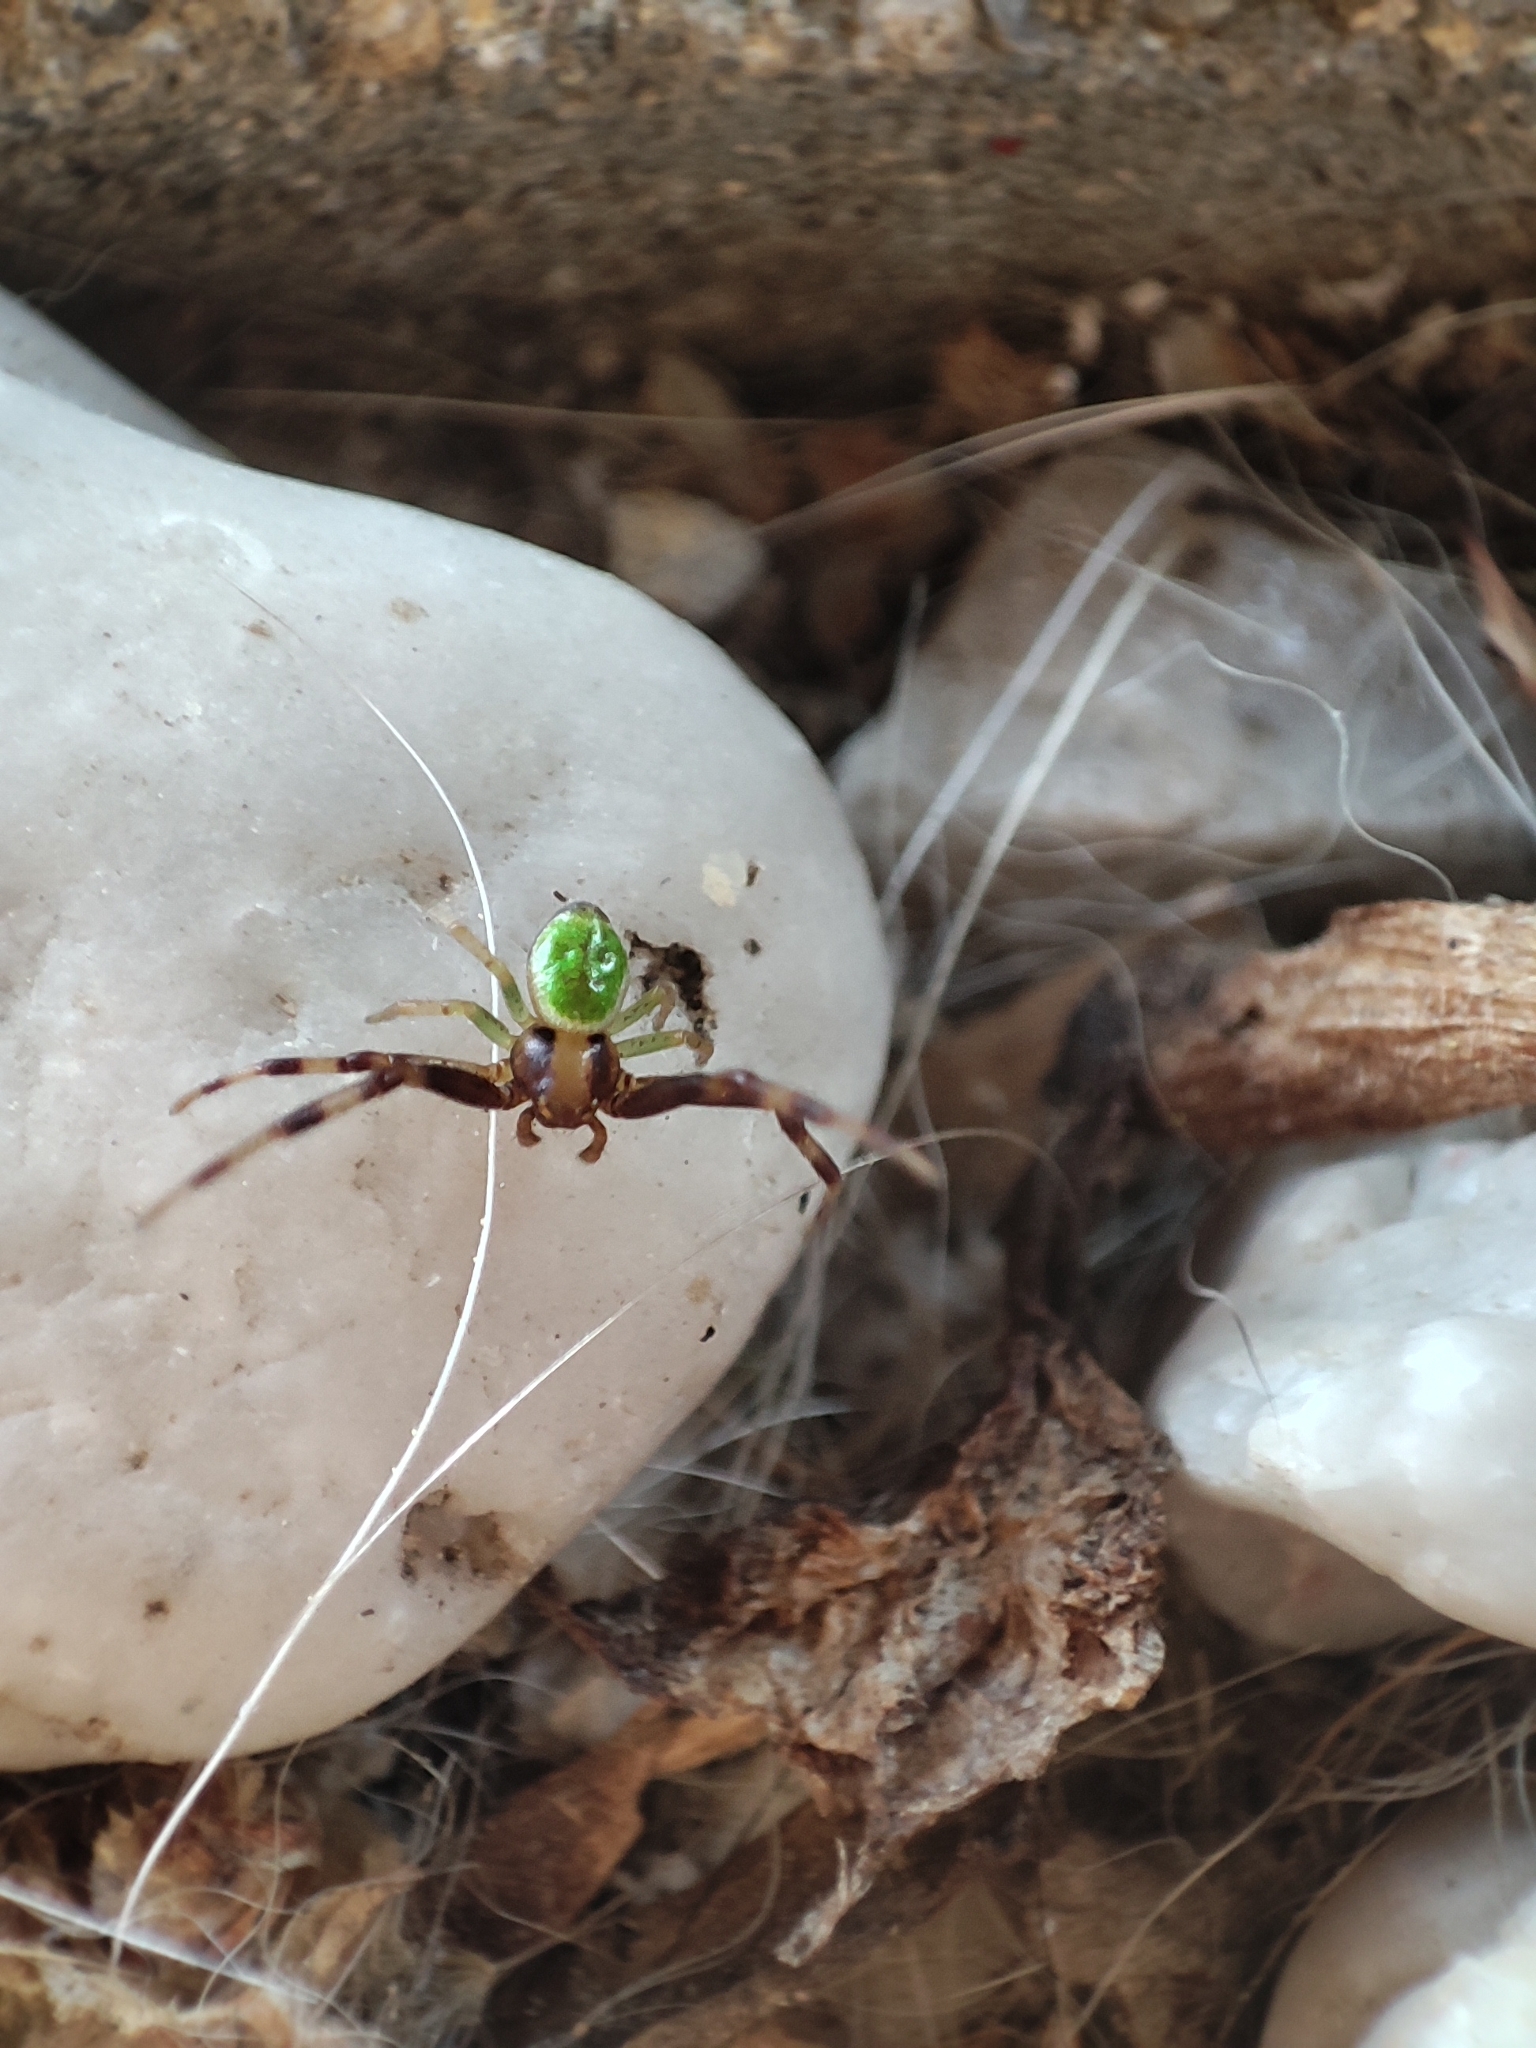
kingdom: Animalia
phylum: Arthropoda
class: Arachnida
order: Araneae
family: Thomisidae
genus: Ebrechtella
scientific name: Ebrechtella tricuspidata
